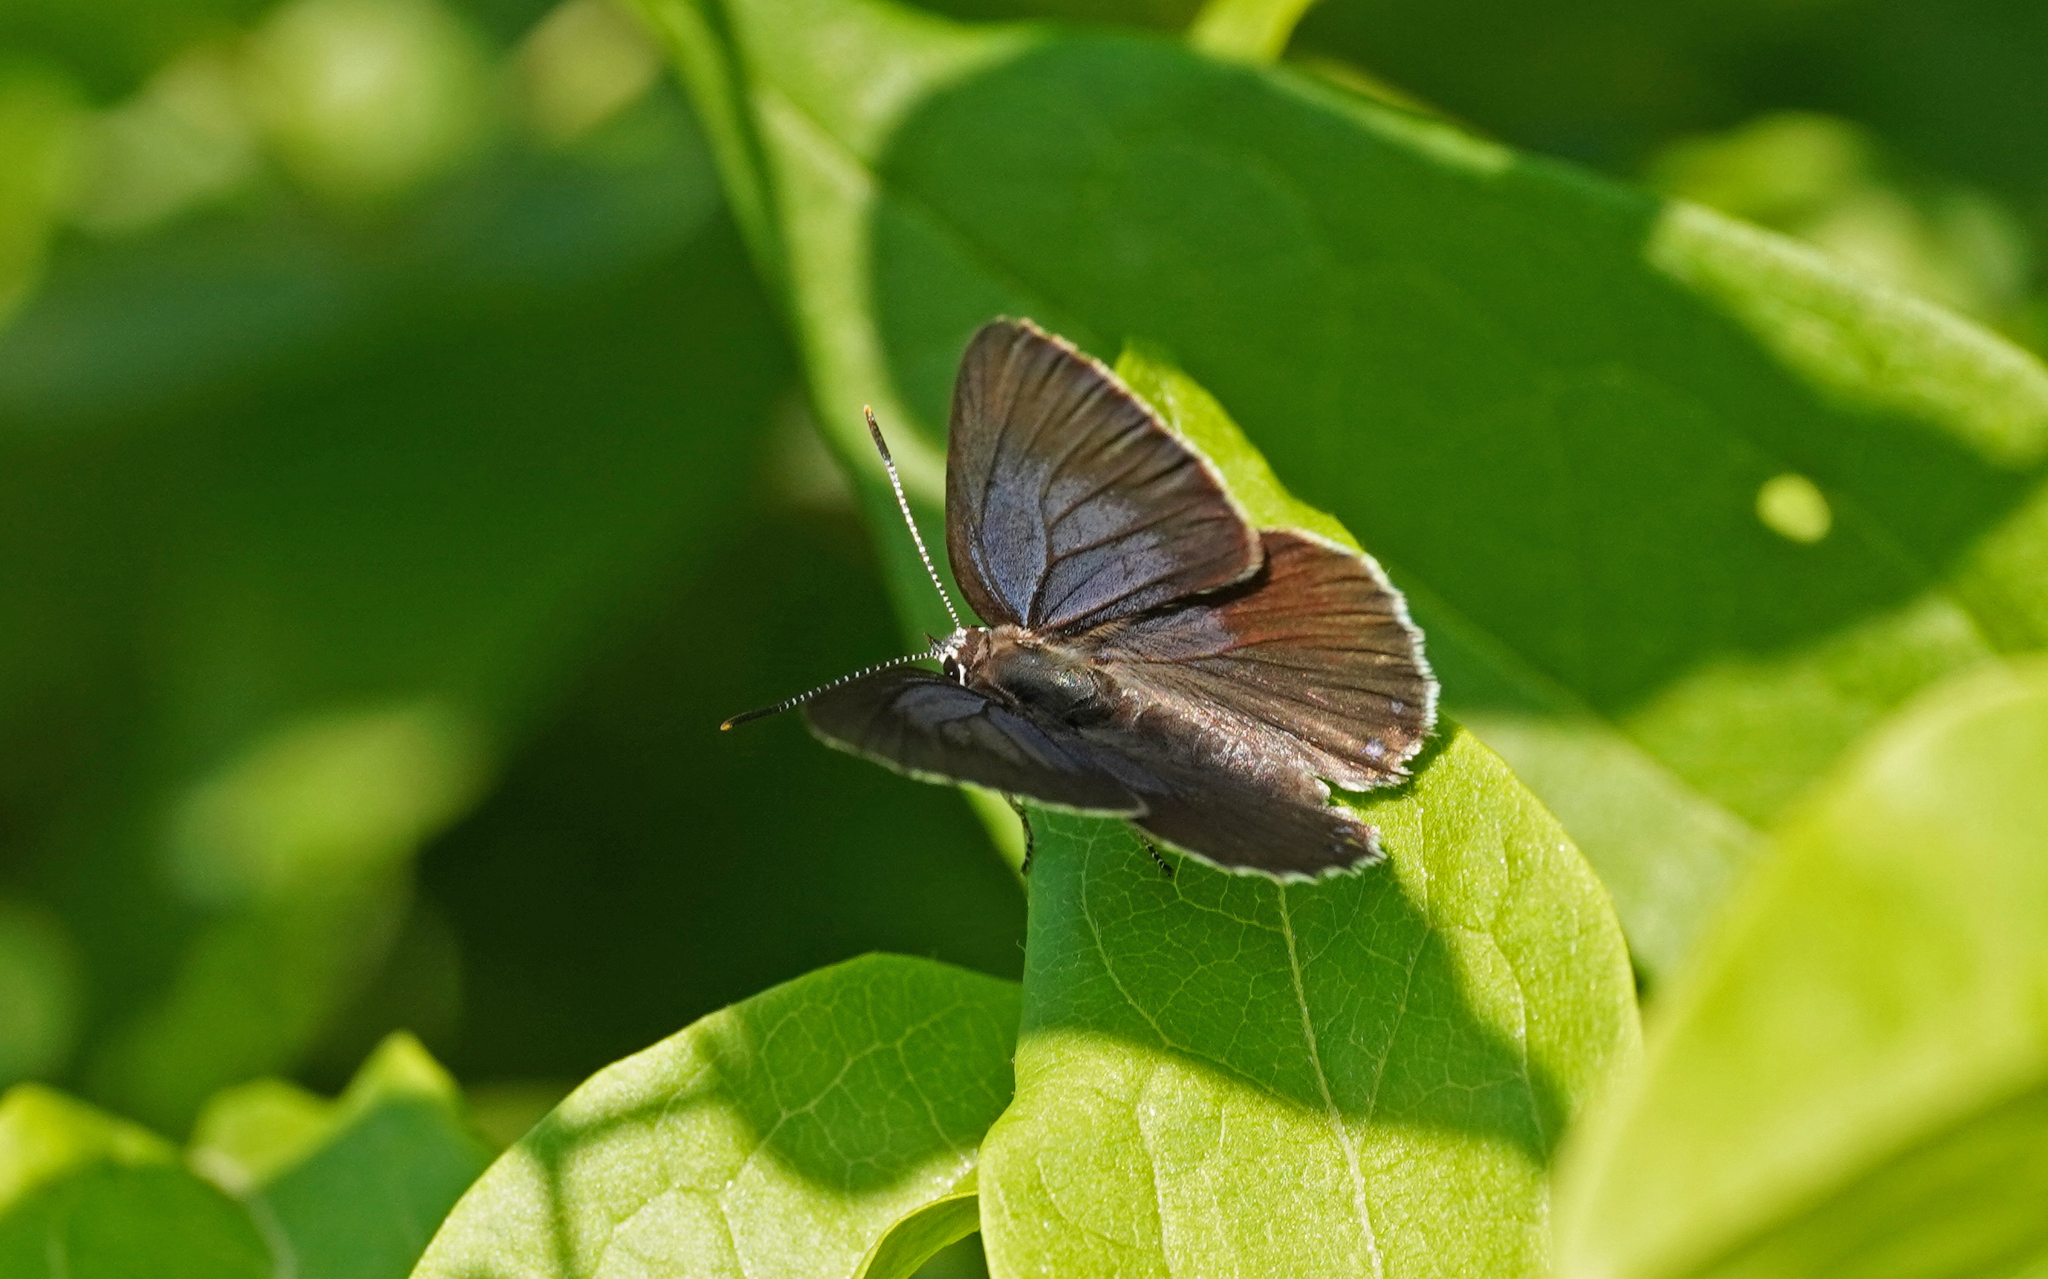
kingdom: Animalia
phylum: Arthropoda
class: Insecta
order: Lepidoptera
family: Lycaenidae
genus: Laeosopis
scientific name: Laeosopis roboris
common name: Spanish purple hairstreak
